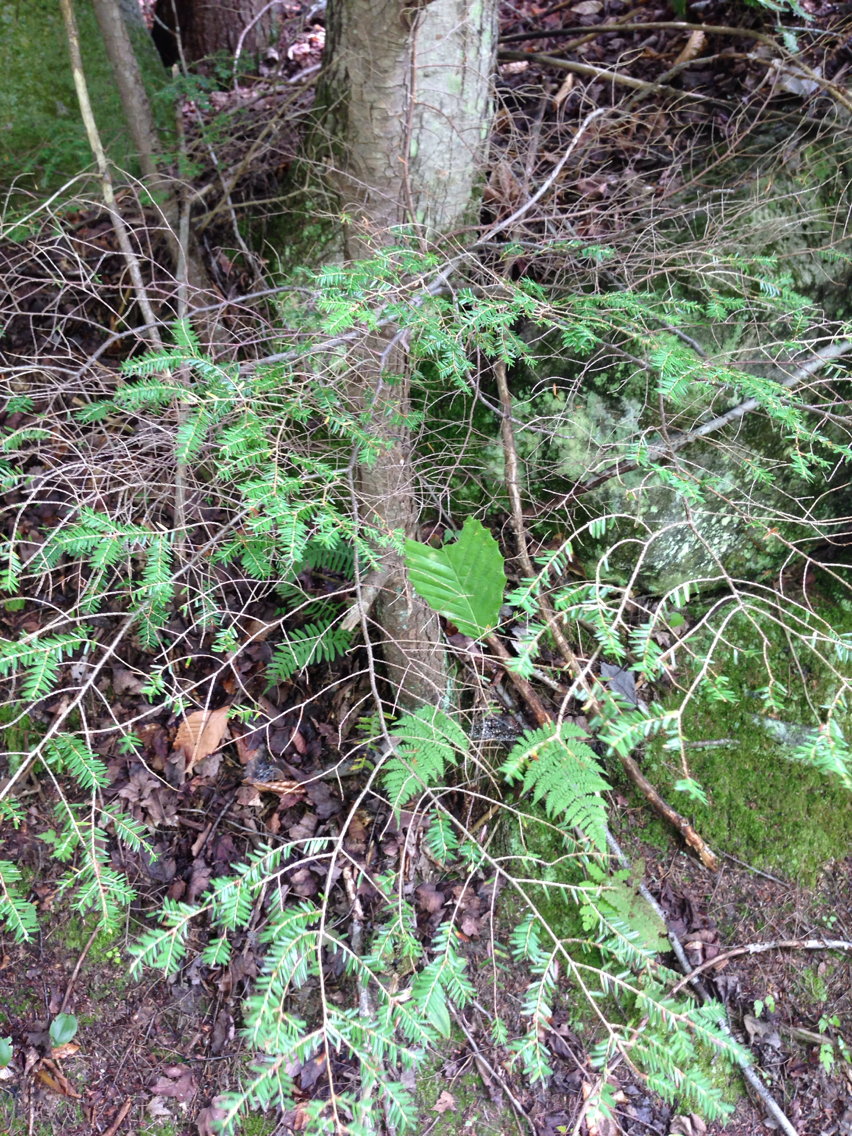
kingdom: Plantae
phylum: Tracheophyta
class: Pinopsida
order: Pinales
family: Pinaceae
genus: Tsuga
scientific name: Tsuga canadensis
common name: Eastern hemlock
